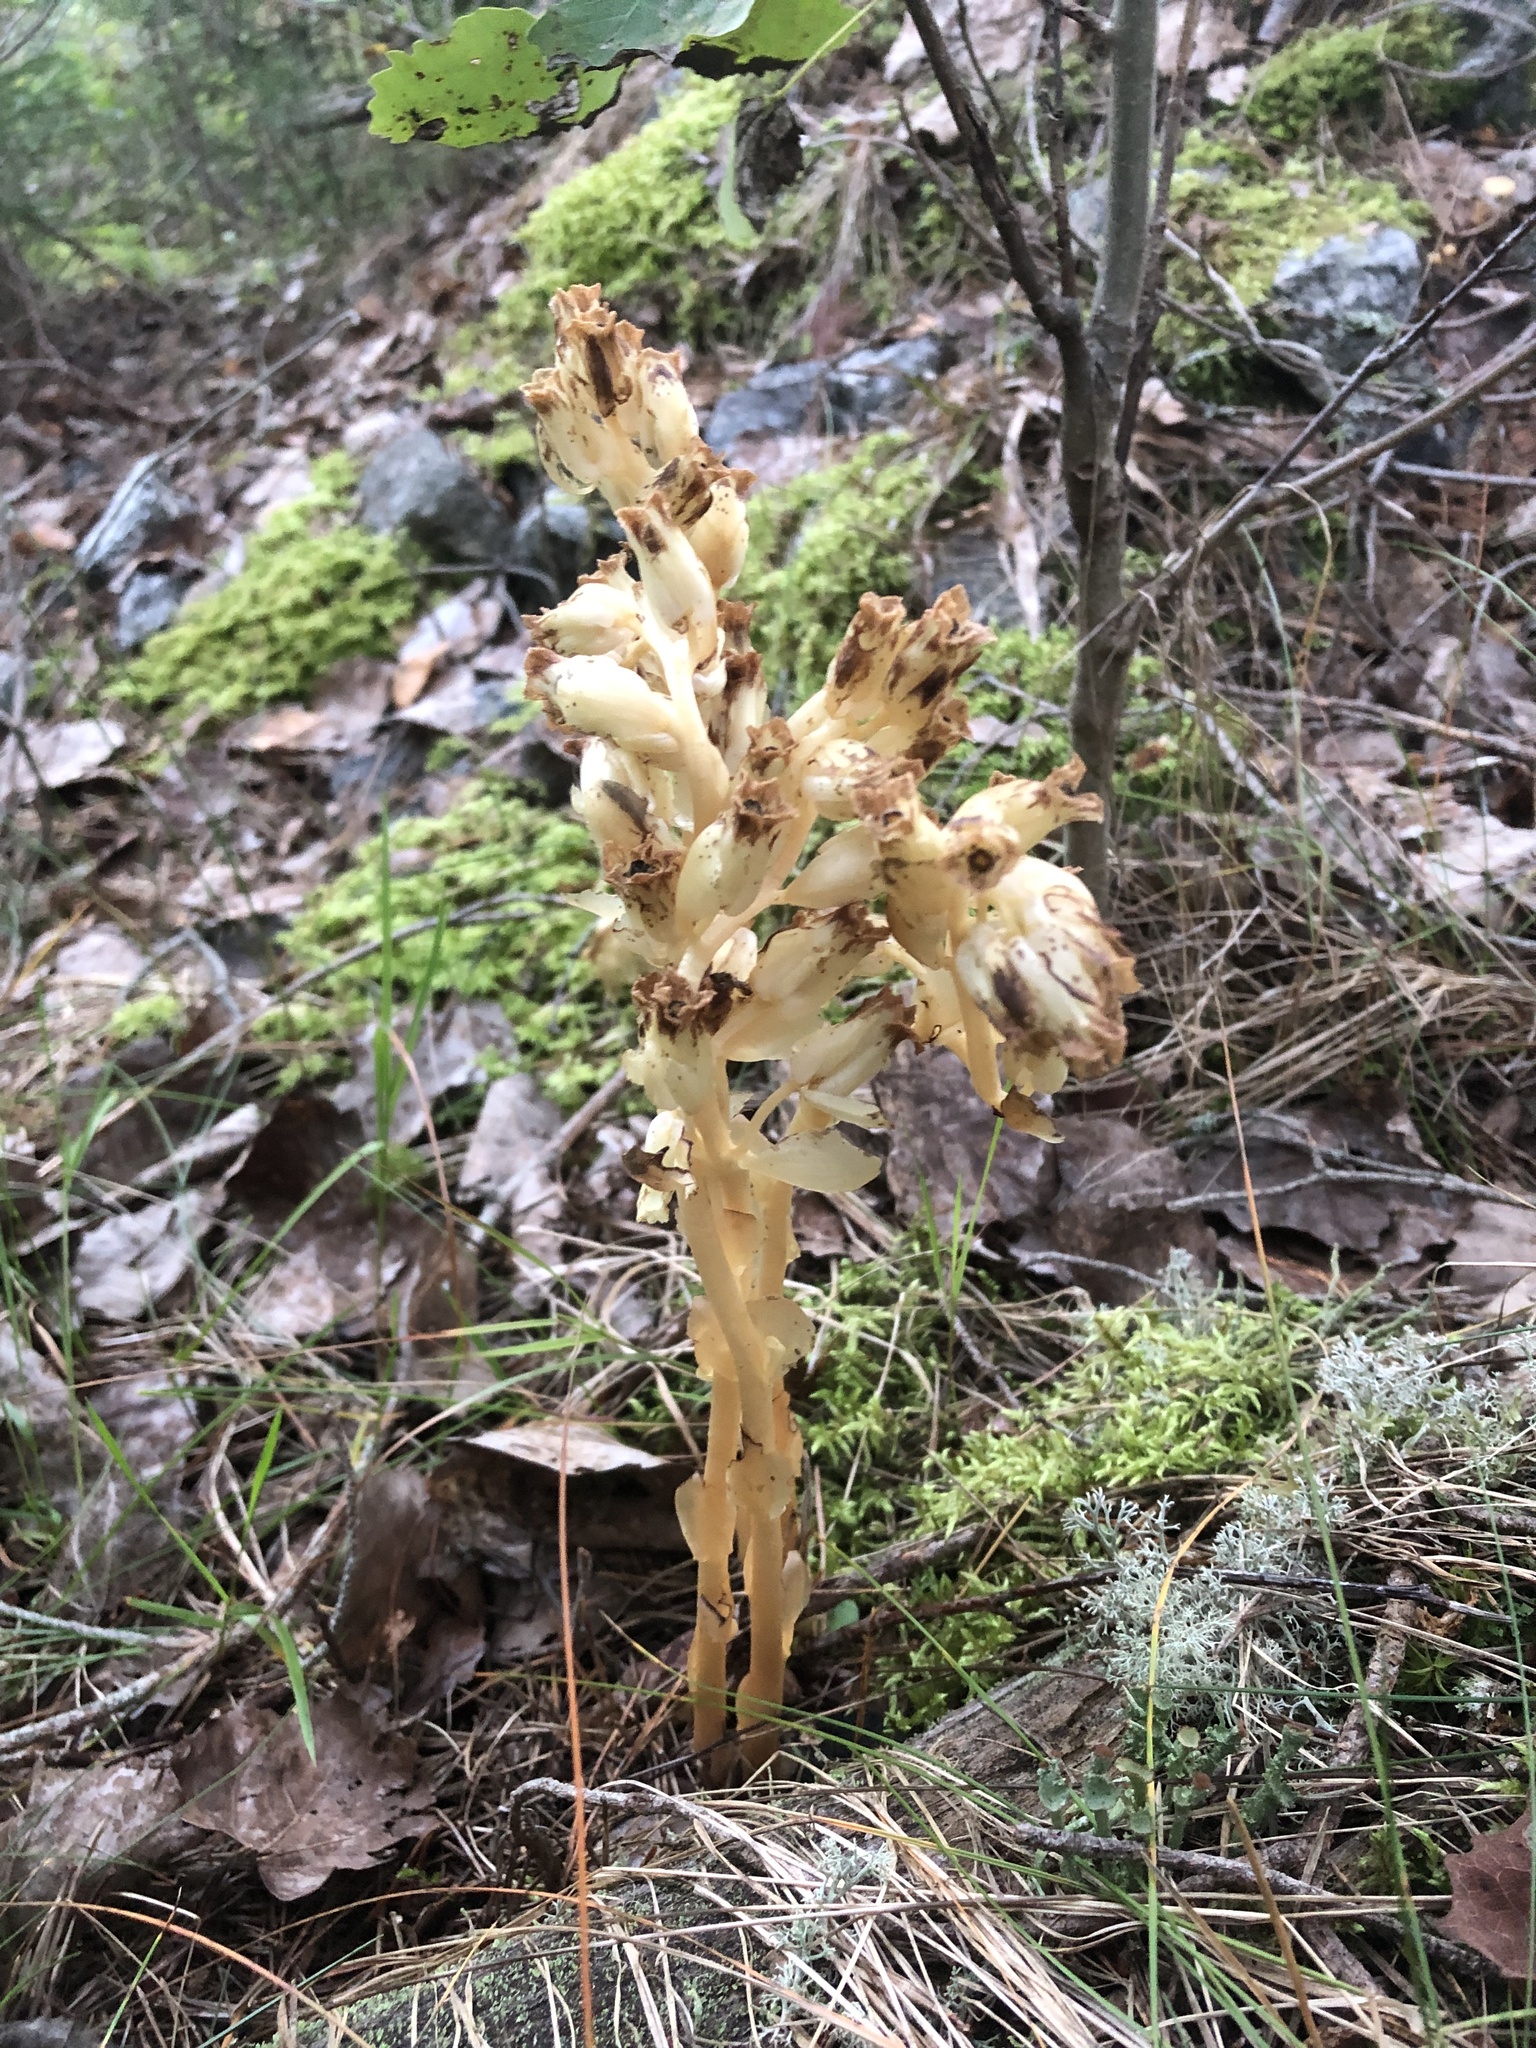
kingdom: Plantae
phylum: Tracheophyta
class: Magnoliopsida
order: Ericales
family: Ericaceae
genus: Hypopitys
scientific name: Hypopitys monotropa
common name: Yellow bird's-nest
